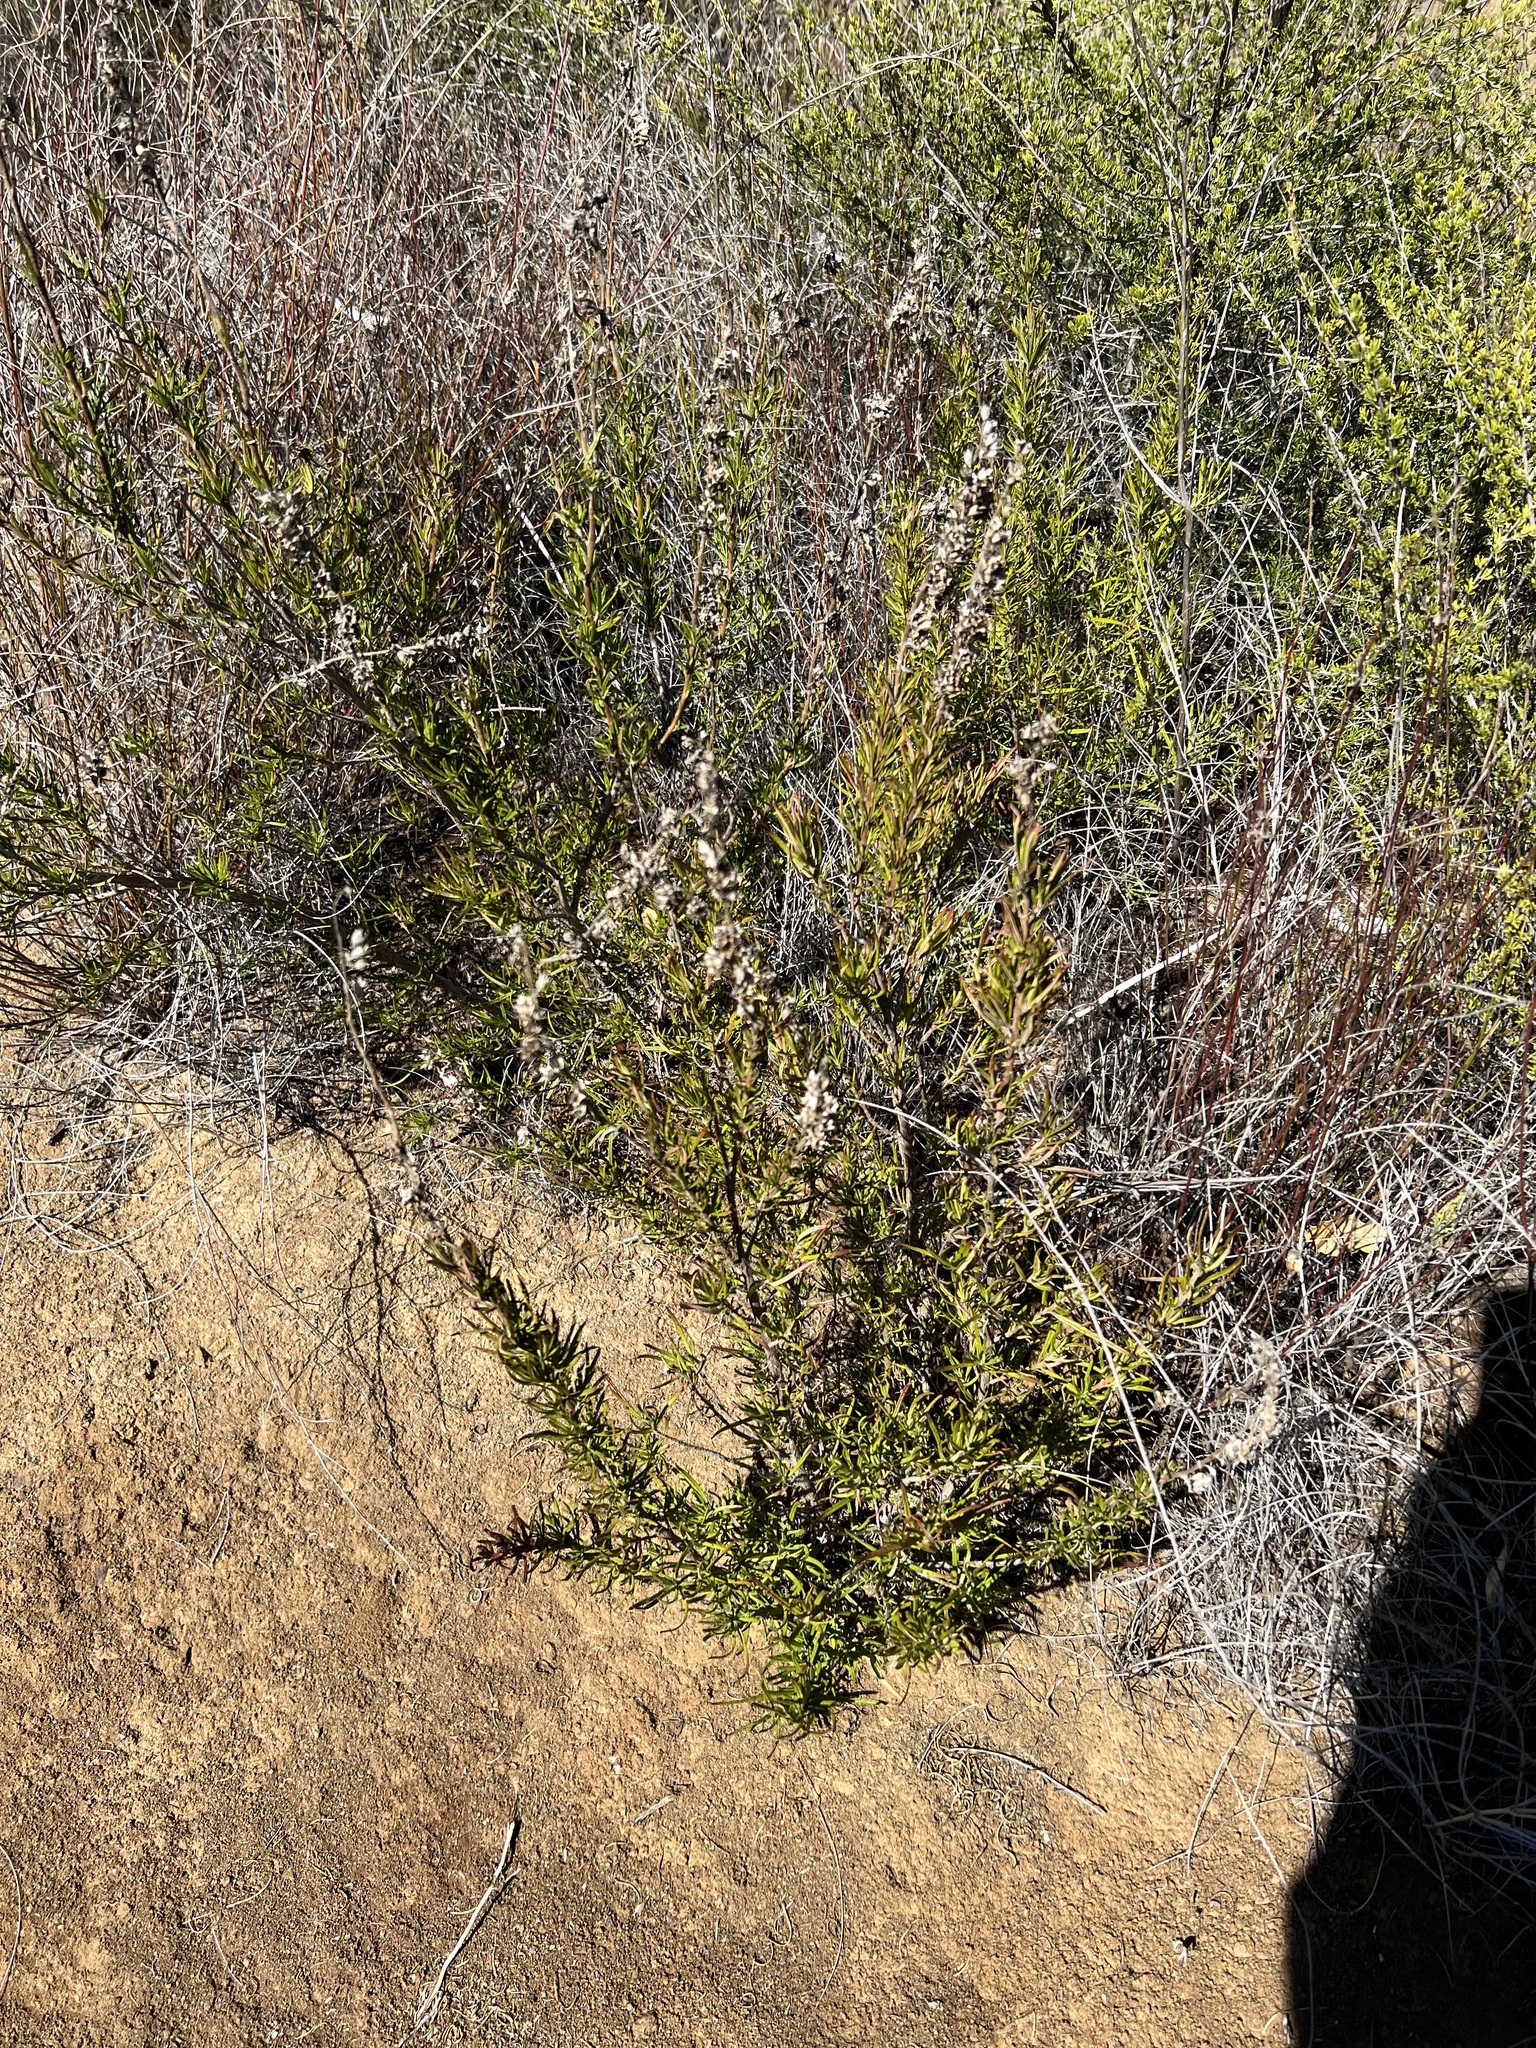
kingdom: Plantae
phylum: Tracheophyta
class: Magnoliopsida
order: Lamiales
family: Lamiaceae
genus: Trichostema
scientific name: Trichostema lanatum
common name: Woolly bluecurls
